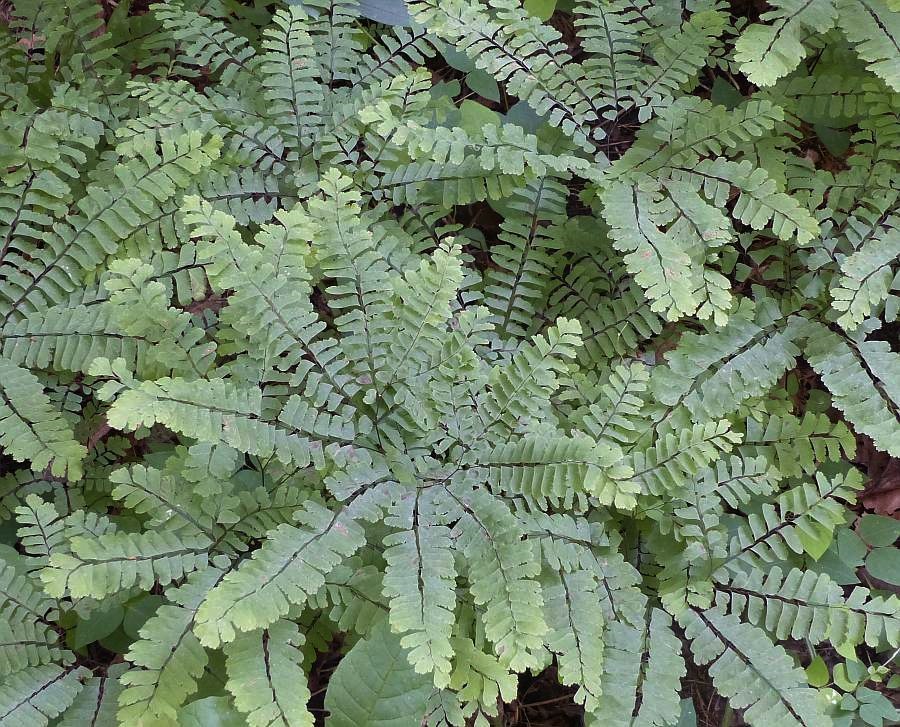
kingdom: Plantae
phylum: Tracheophyta
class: Polypodiopsida
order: Polypodiales
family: Pteridaceae
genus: Adiantum
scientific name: Adiantum pedatum
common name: Five-finger fern
